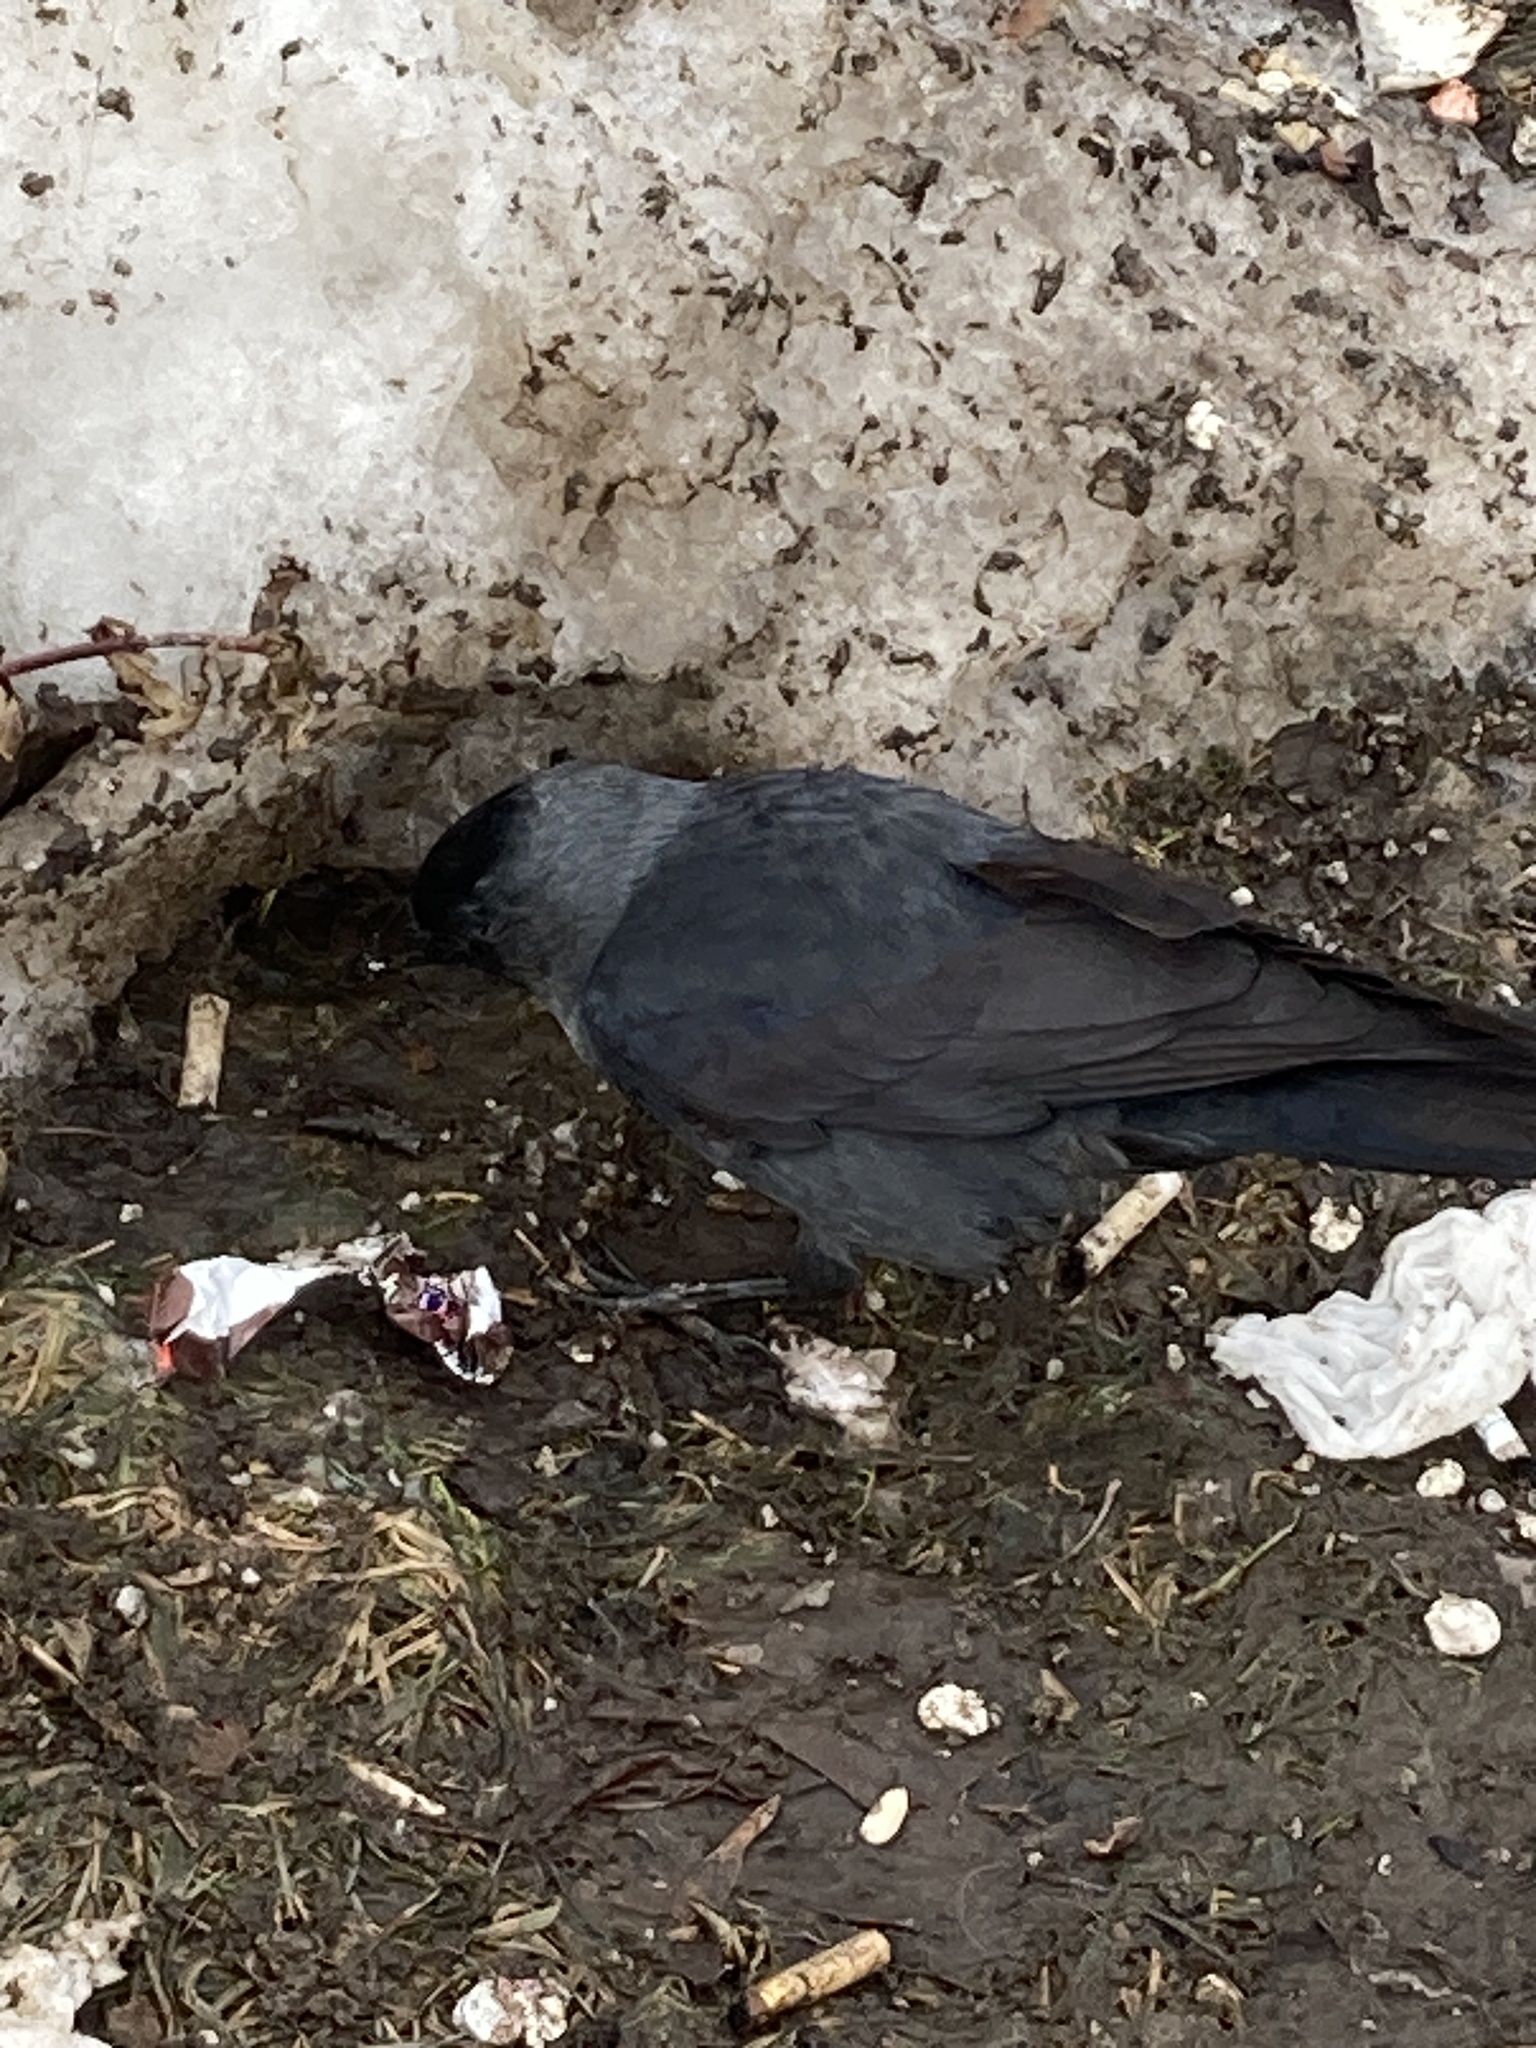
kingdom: Animalia
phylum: Chordata
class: Aves
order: Passeriformes
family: Corvidae
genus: Coloeus
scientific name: Coloeus monedula
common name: Western jackdaw
